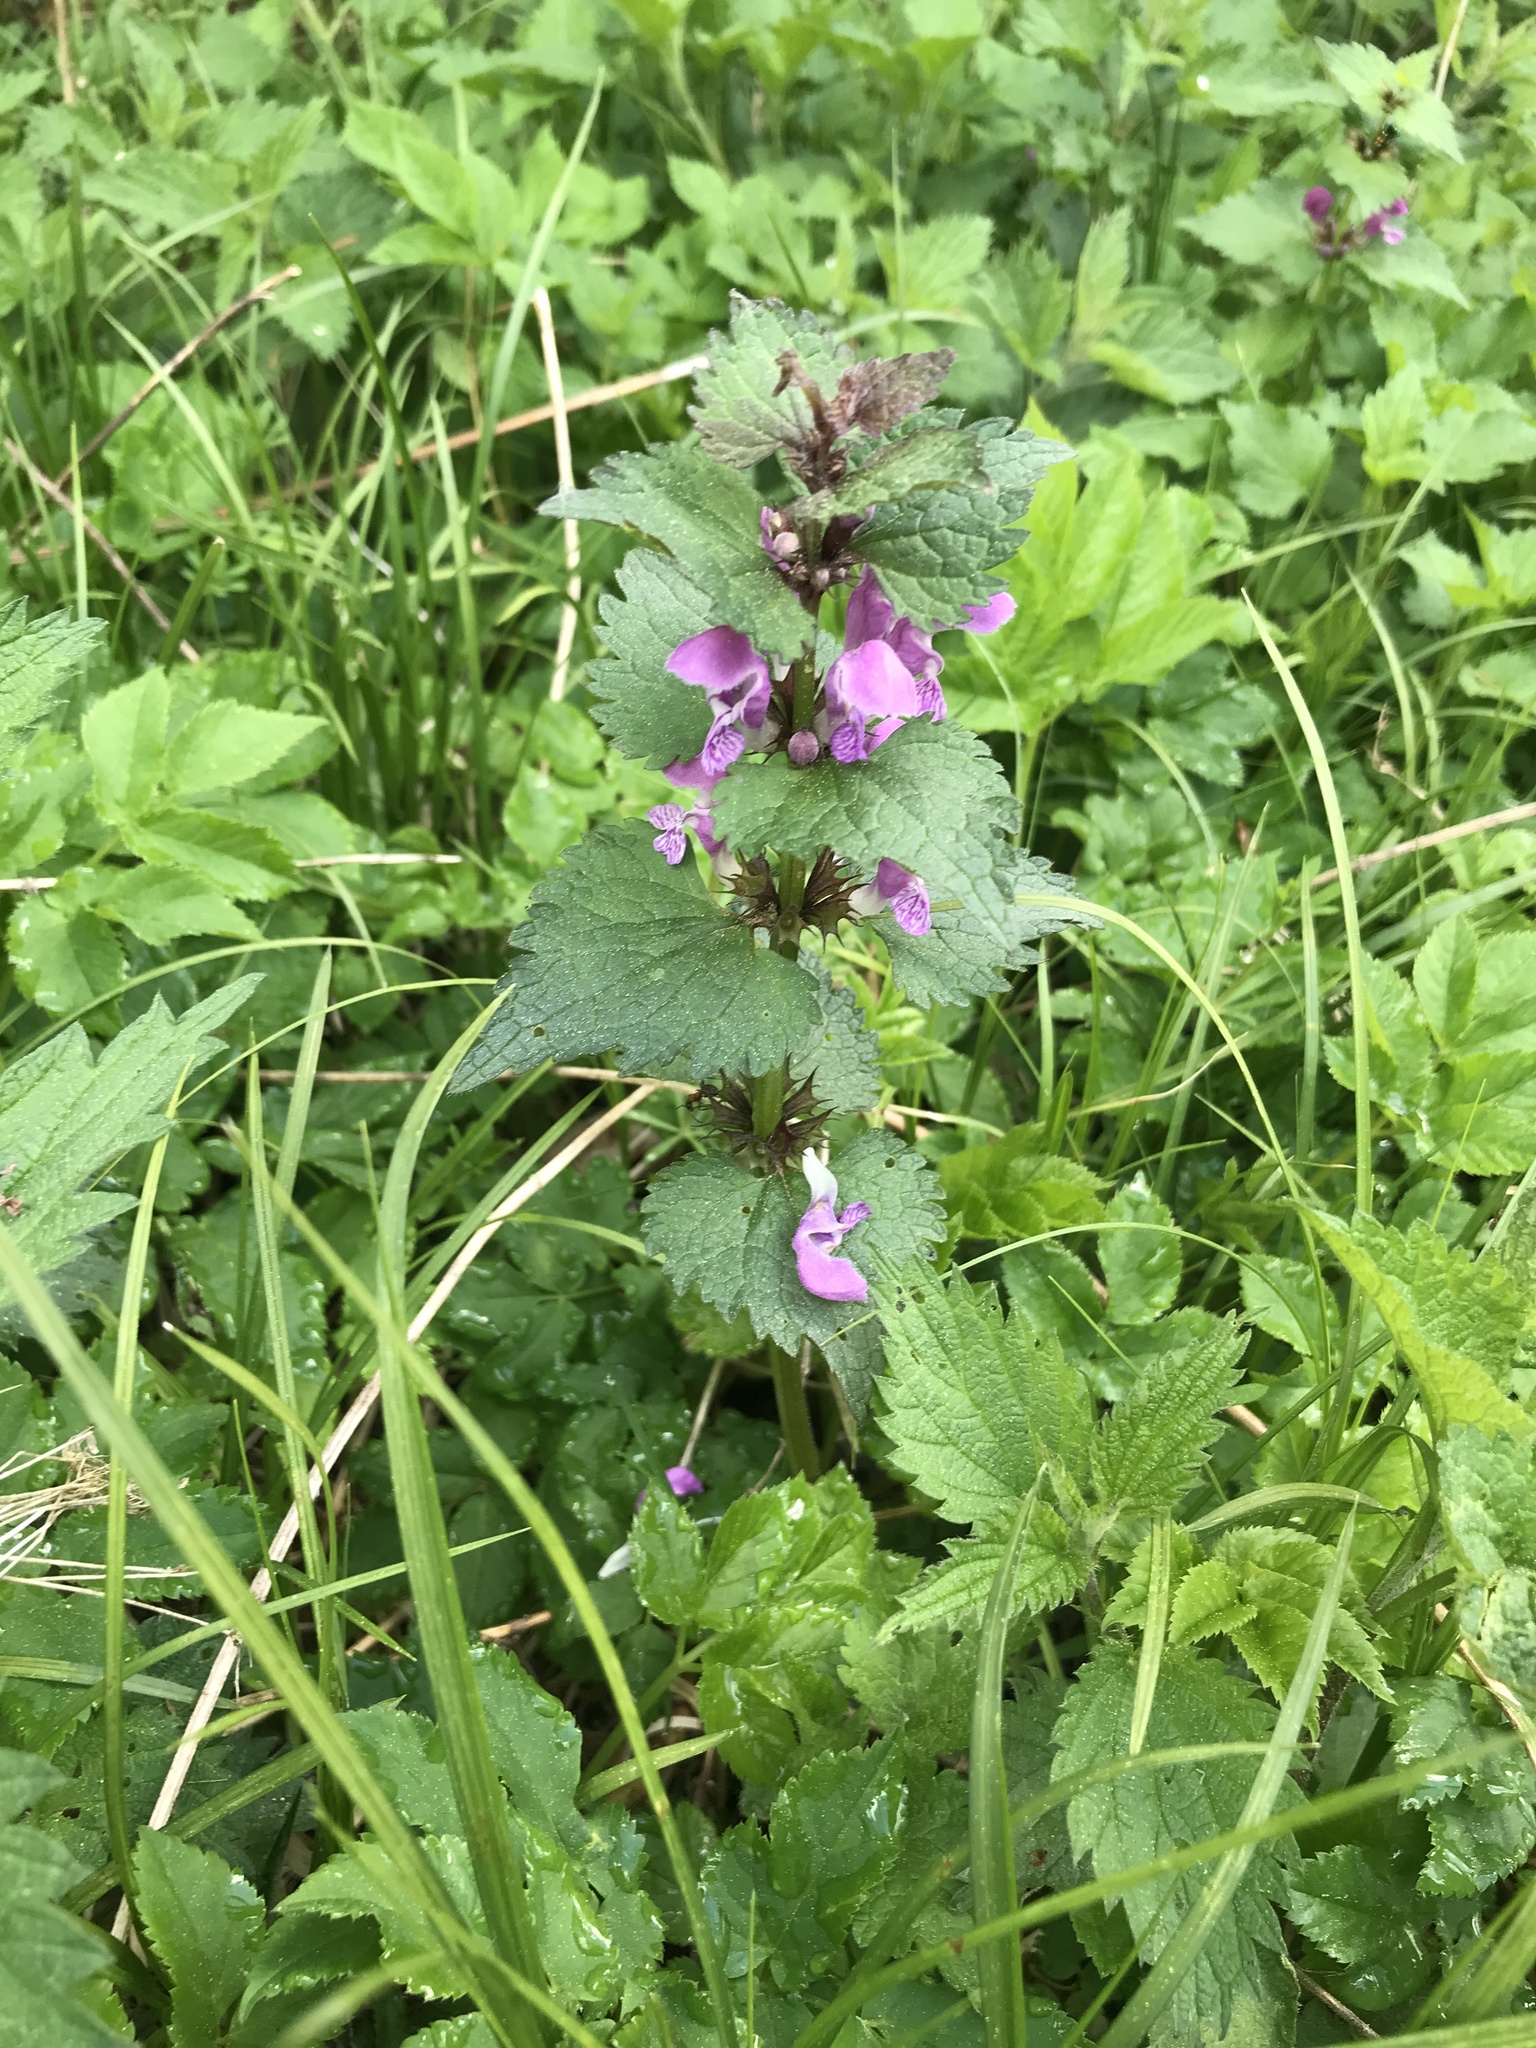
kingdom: Plantae
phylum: Tracheophyta
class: Magnoliopsida
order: Lamiales
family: Lamiaceae
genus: Lamium
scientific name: Lamium maculatum
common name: Spotted dead-nettle
